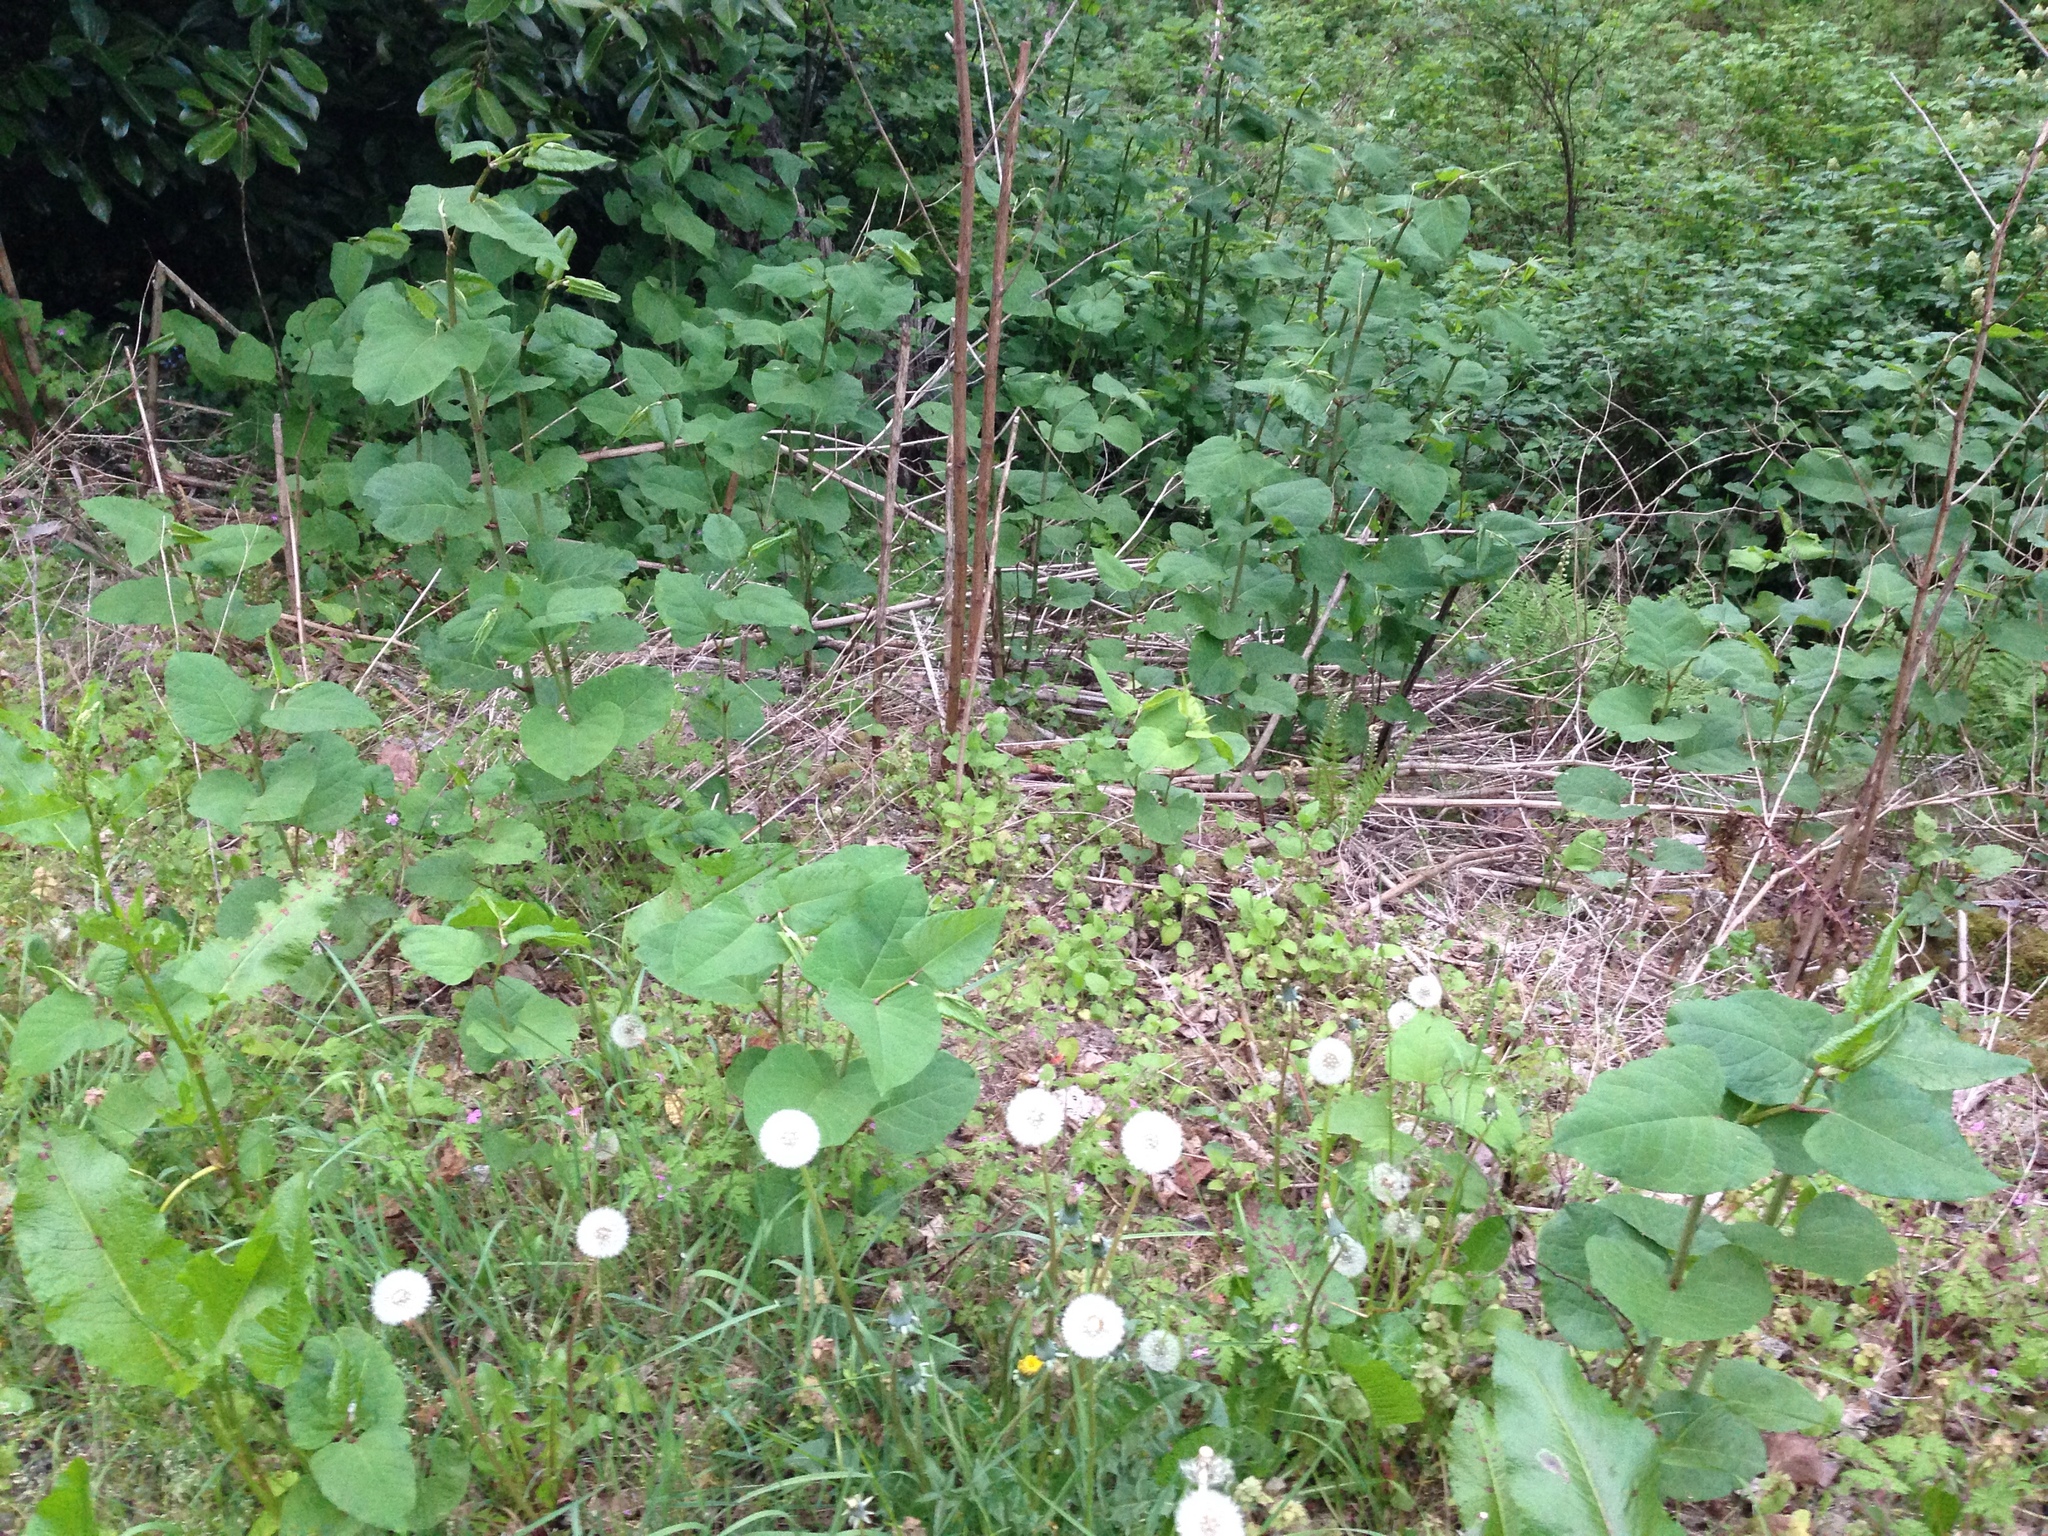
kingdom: Plantae
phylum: Tracheophyta
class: Magnoliopsida
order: Caryophyllales
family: Polygonaceae
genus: Reynoutria
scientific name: Reynoutria japonica
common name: Japanese knotweed
